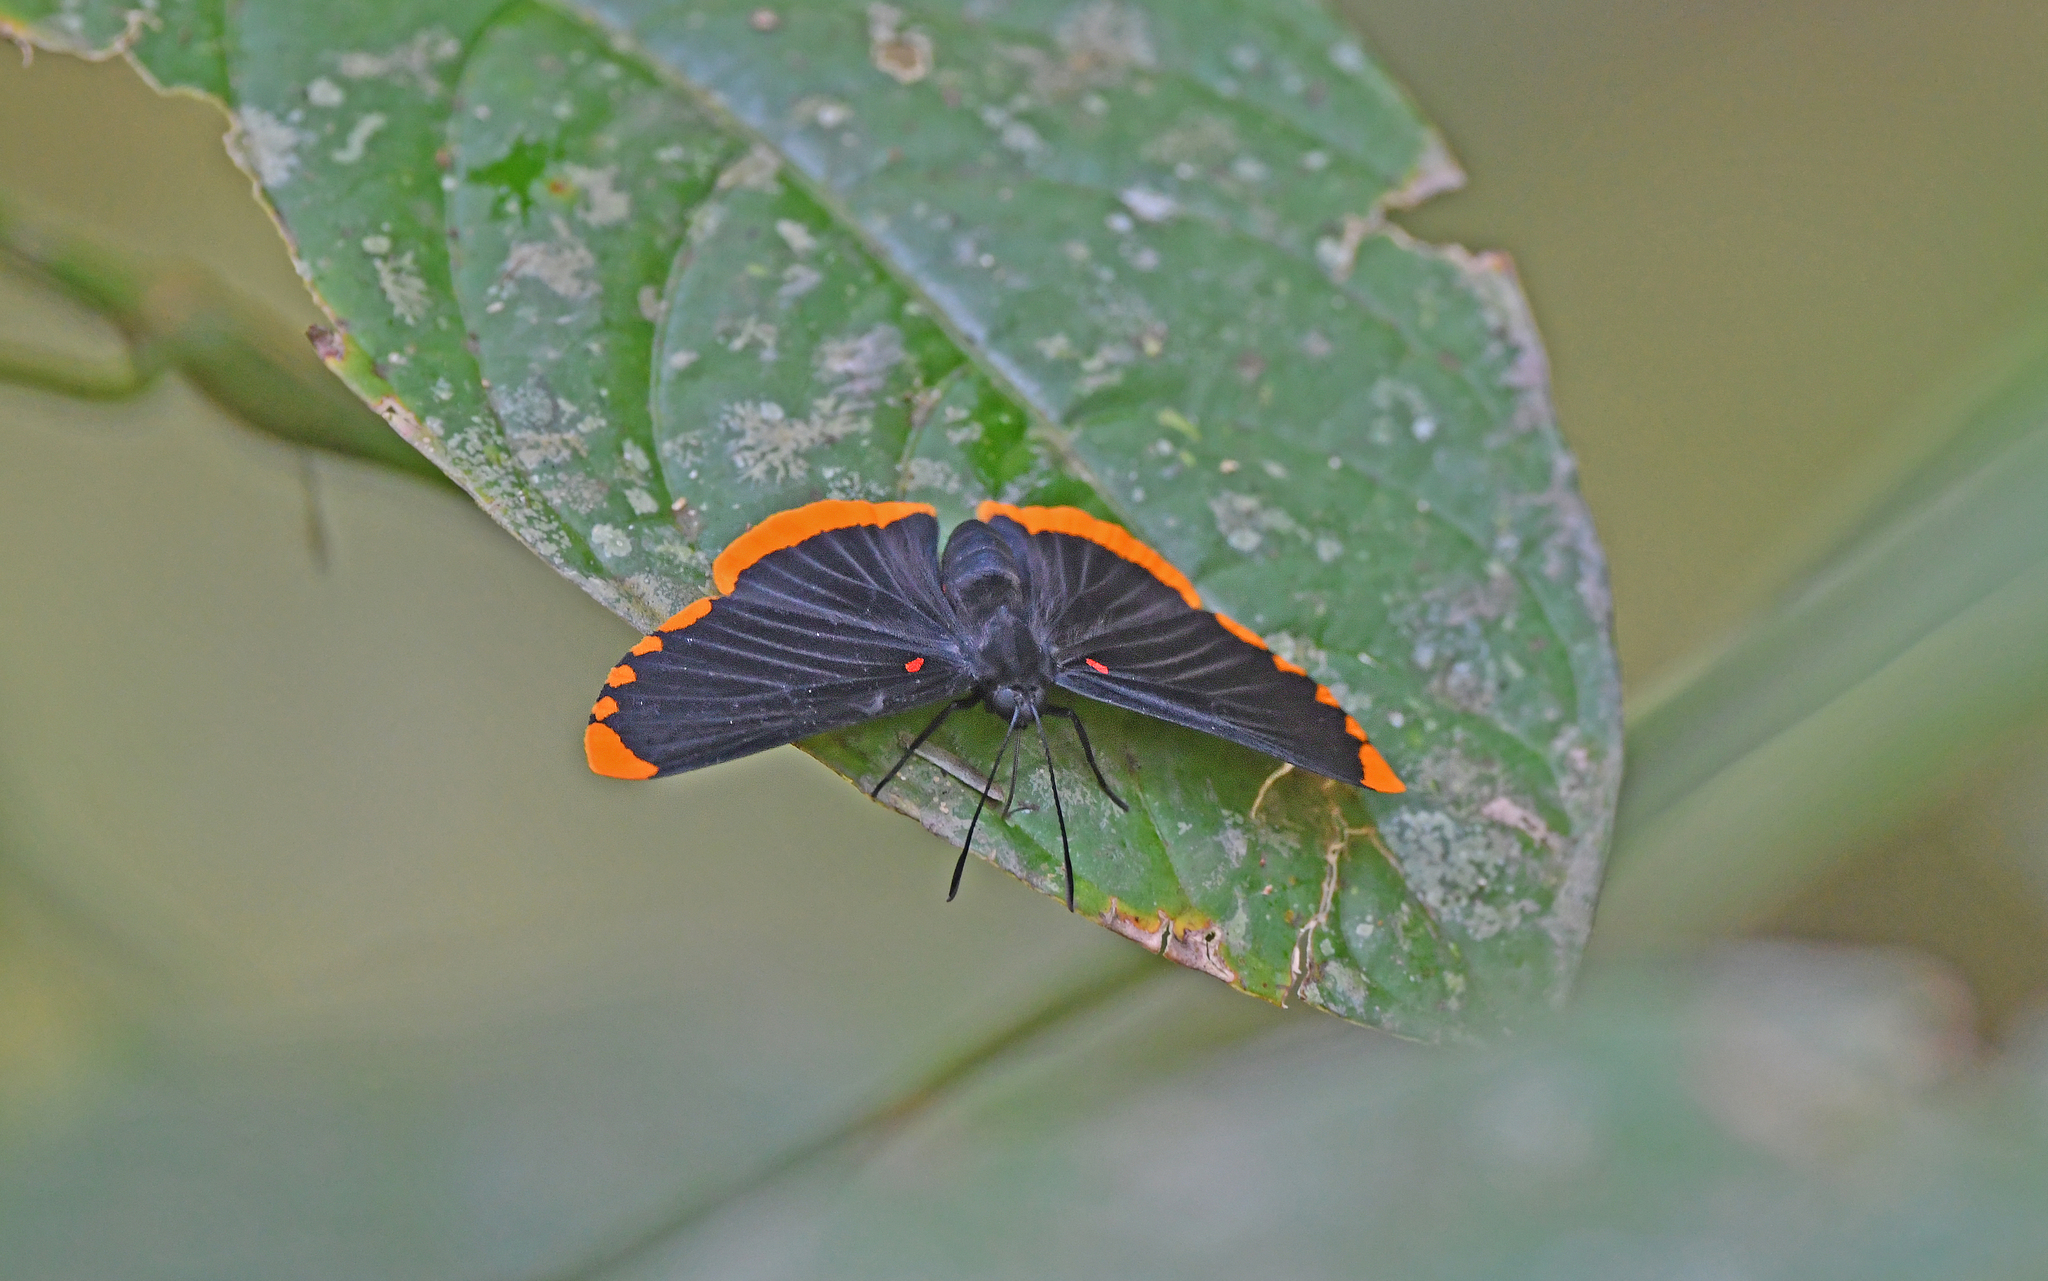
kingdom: Animalia
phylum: Arthropoda
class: Insecta
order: Lepidoptera
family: Lycaenidae
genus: Melanis
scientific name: Melanis smithiae
